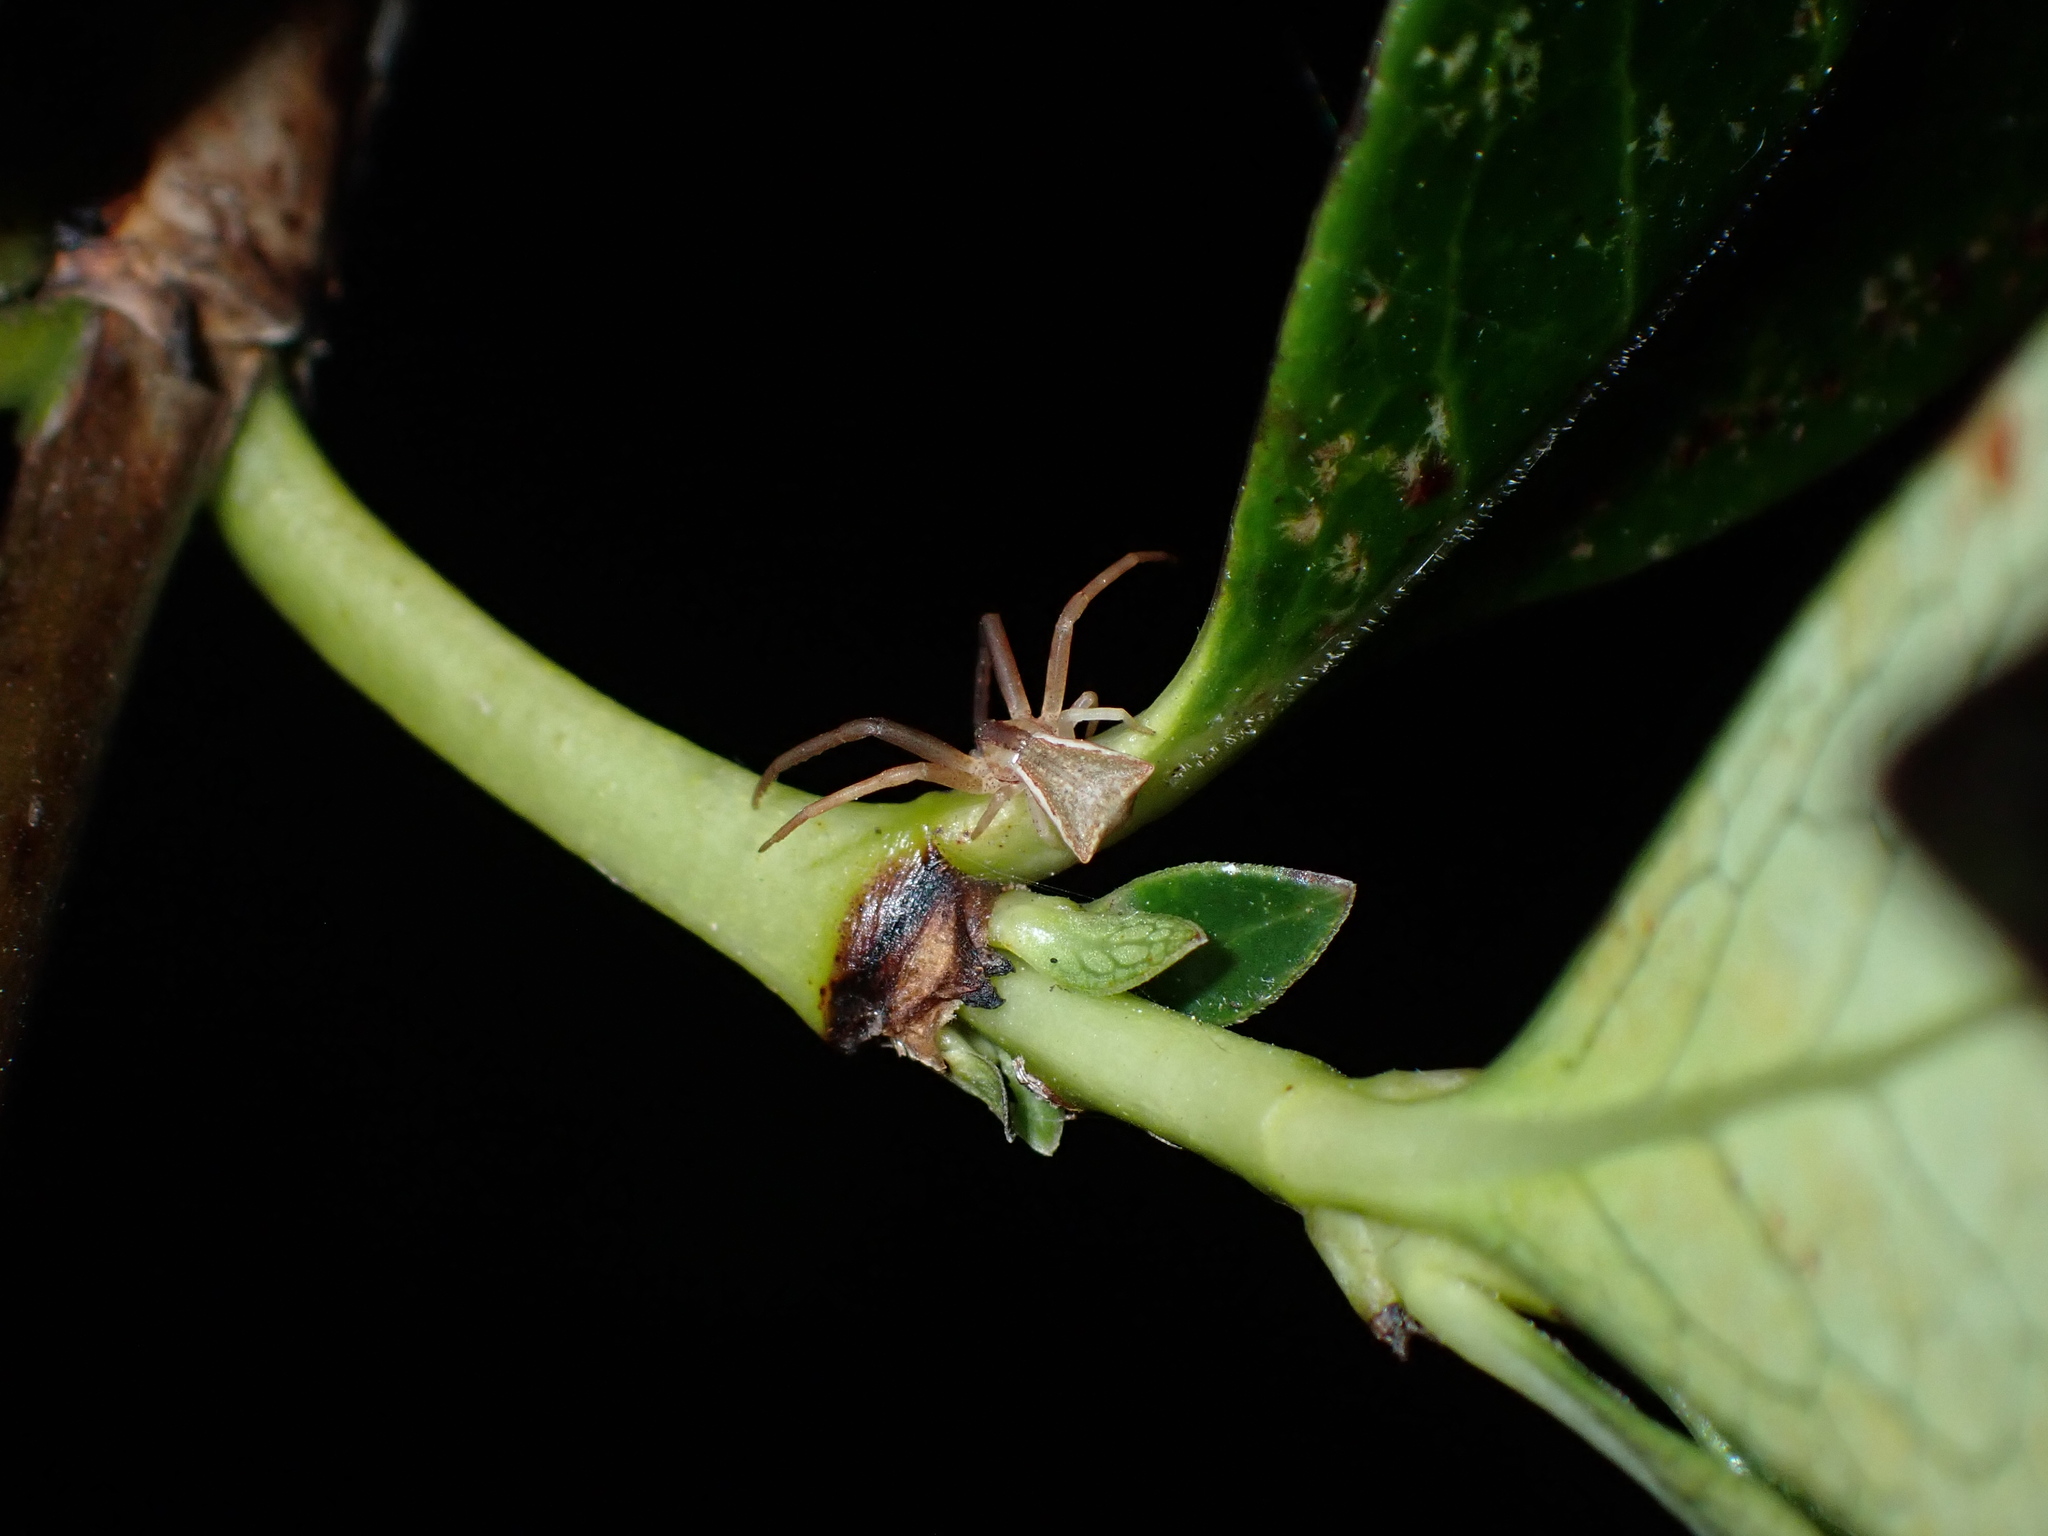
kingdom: Animalia
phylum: Arthropoda
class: Arachnida
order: Araneae
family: Thomisidae
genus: Sidymella
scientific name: Sidymella trapezia
